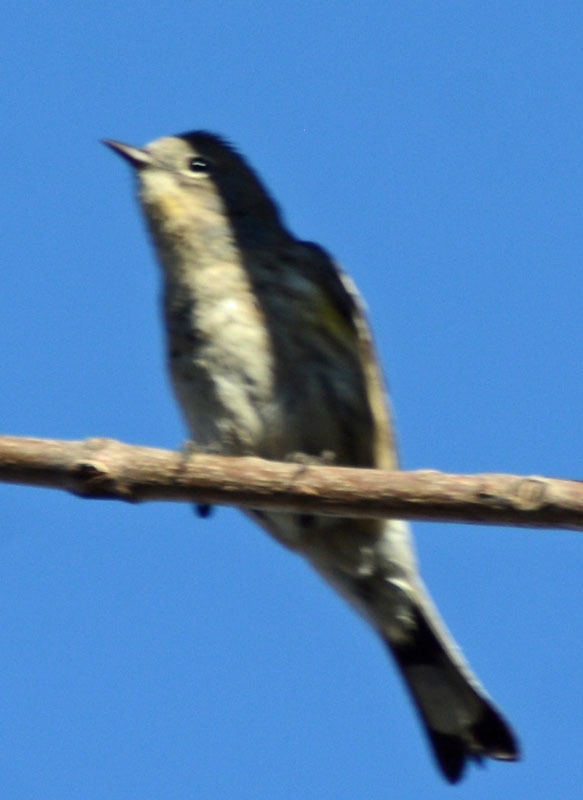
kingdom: Animalia
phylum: Chordata
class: Aves
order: Passeriformes
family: Parulidae
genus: Setophaga
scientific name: Setophaga coronata
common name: Myrtle warbler
